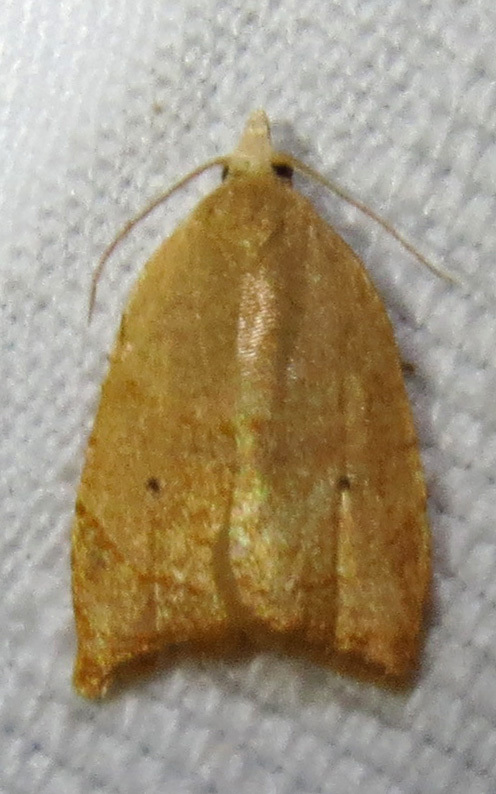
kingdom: Animalia
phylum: Arthropoda
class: Insecta
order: Lepidoptera
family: Tortricidae
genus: Coelostathma
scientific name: Coelostathma discopunctana
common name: Batman moth
